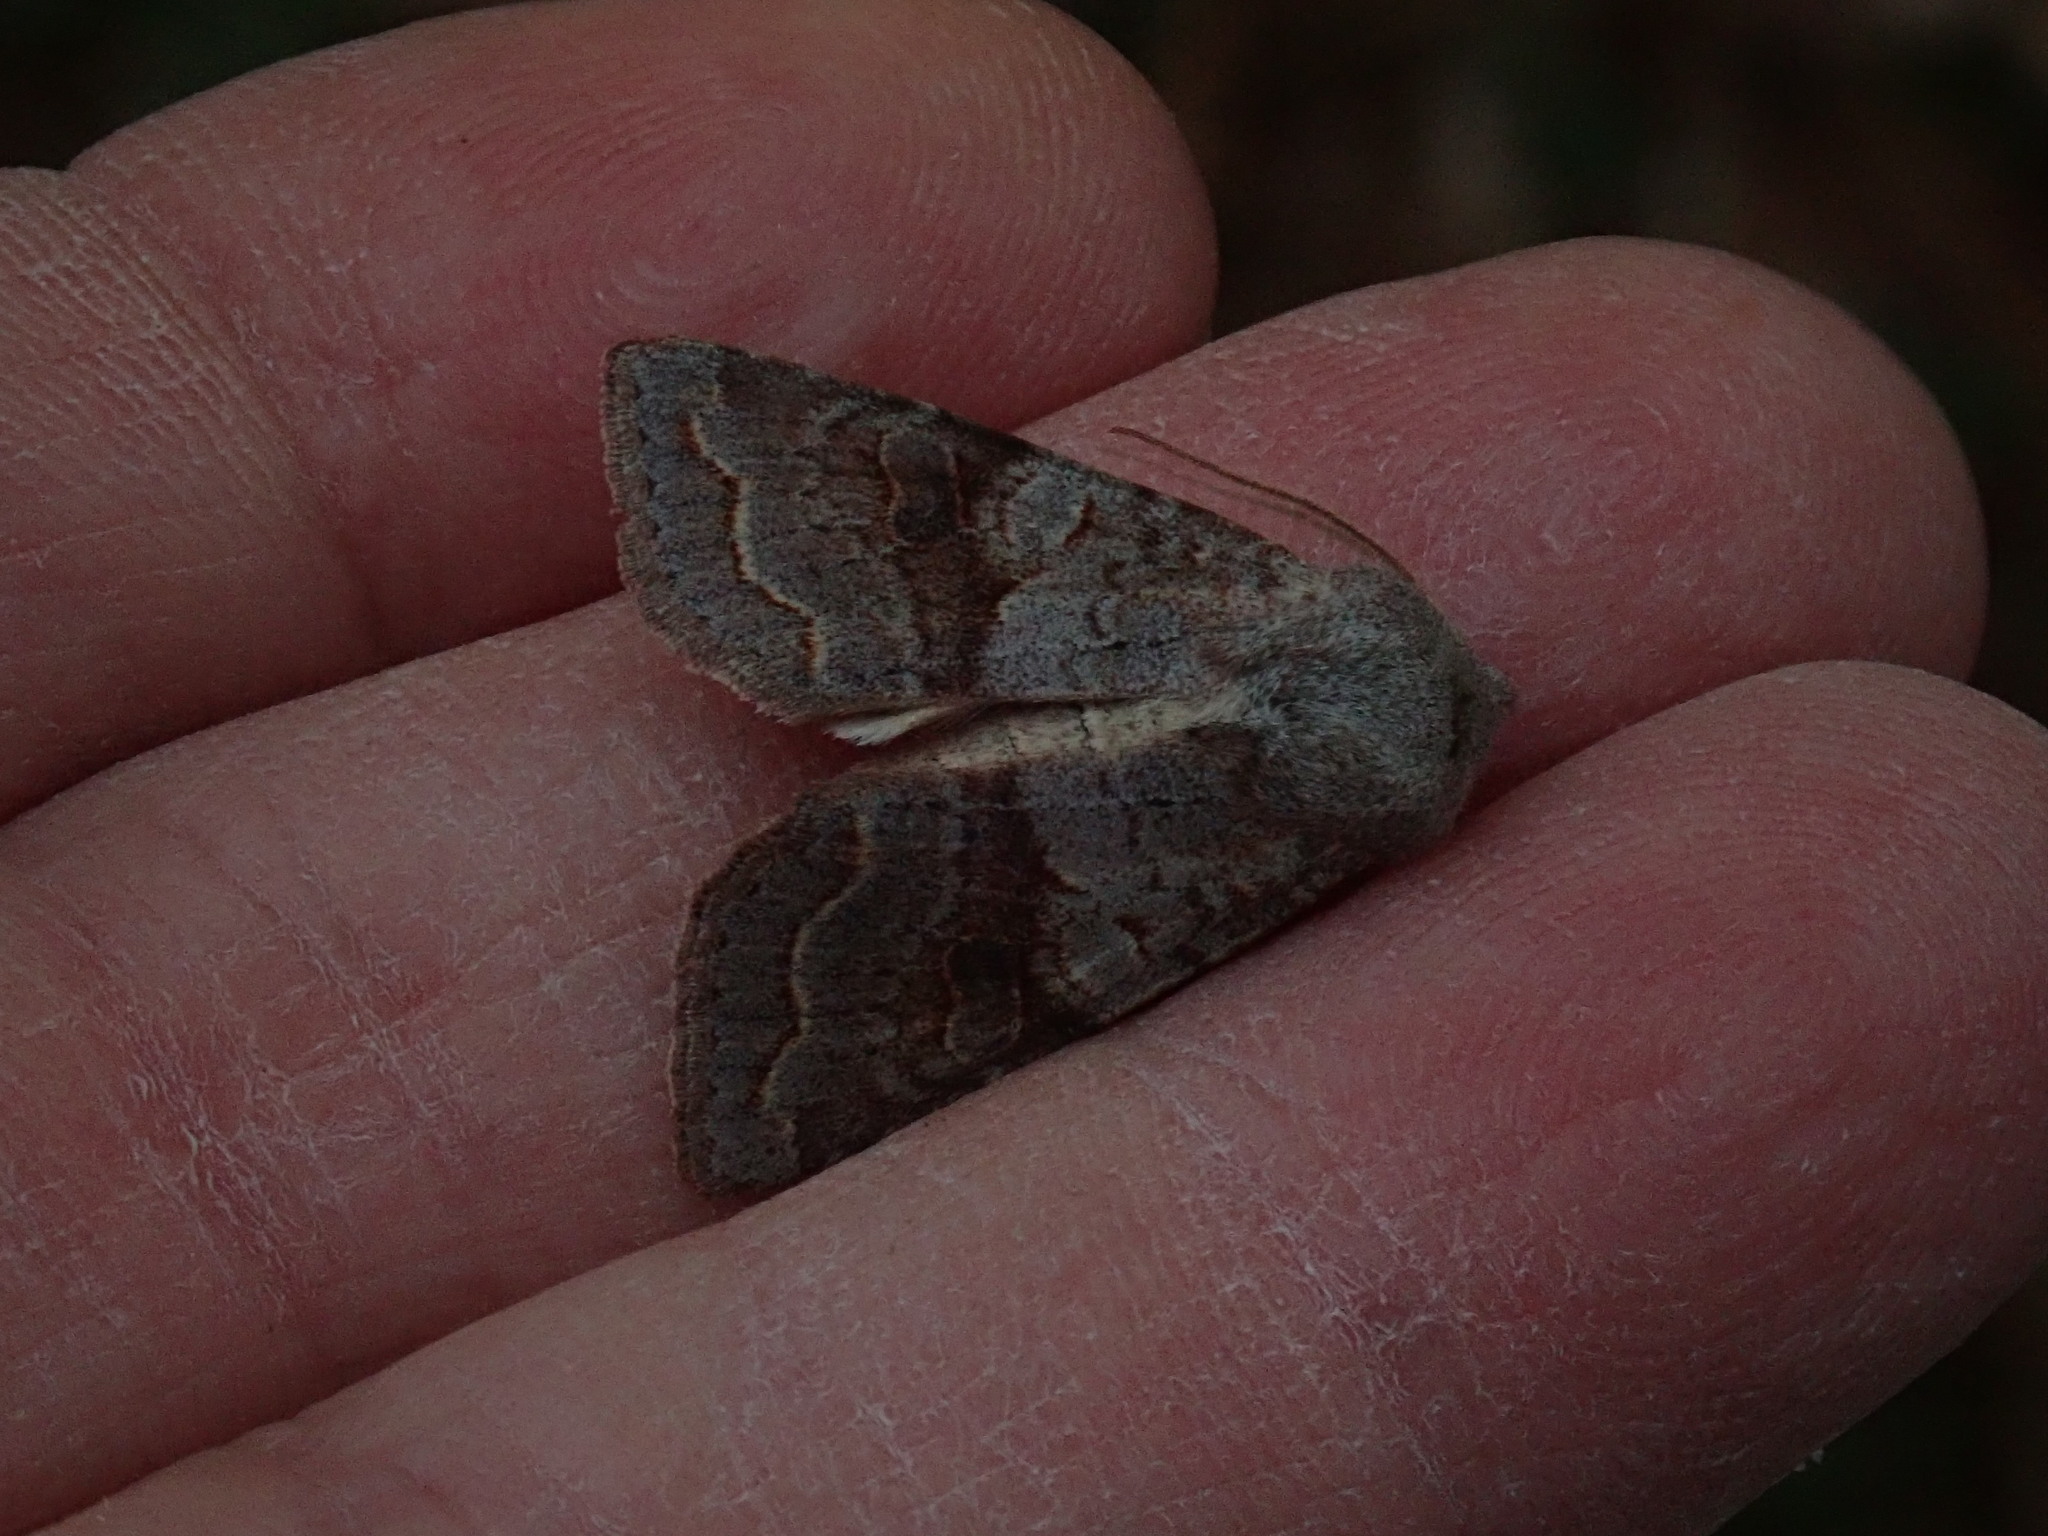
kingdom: Animalia
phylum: Arthropoda
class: Insecta
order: Lepidoptera
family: Noctuidae
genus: Orthosia
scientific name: Orthosia revicta
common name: Rusty whitesided caterpillar
